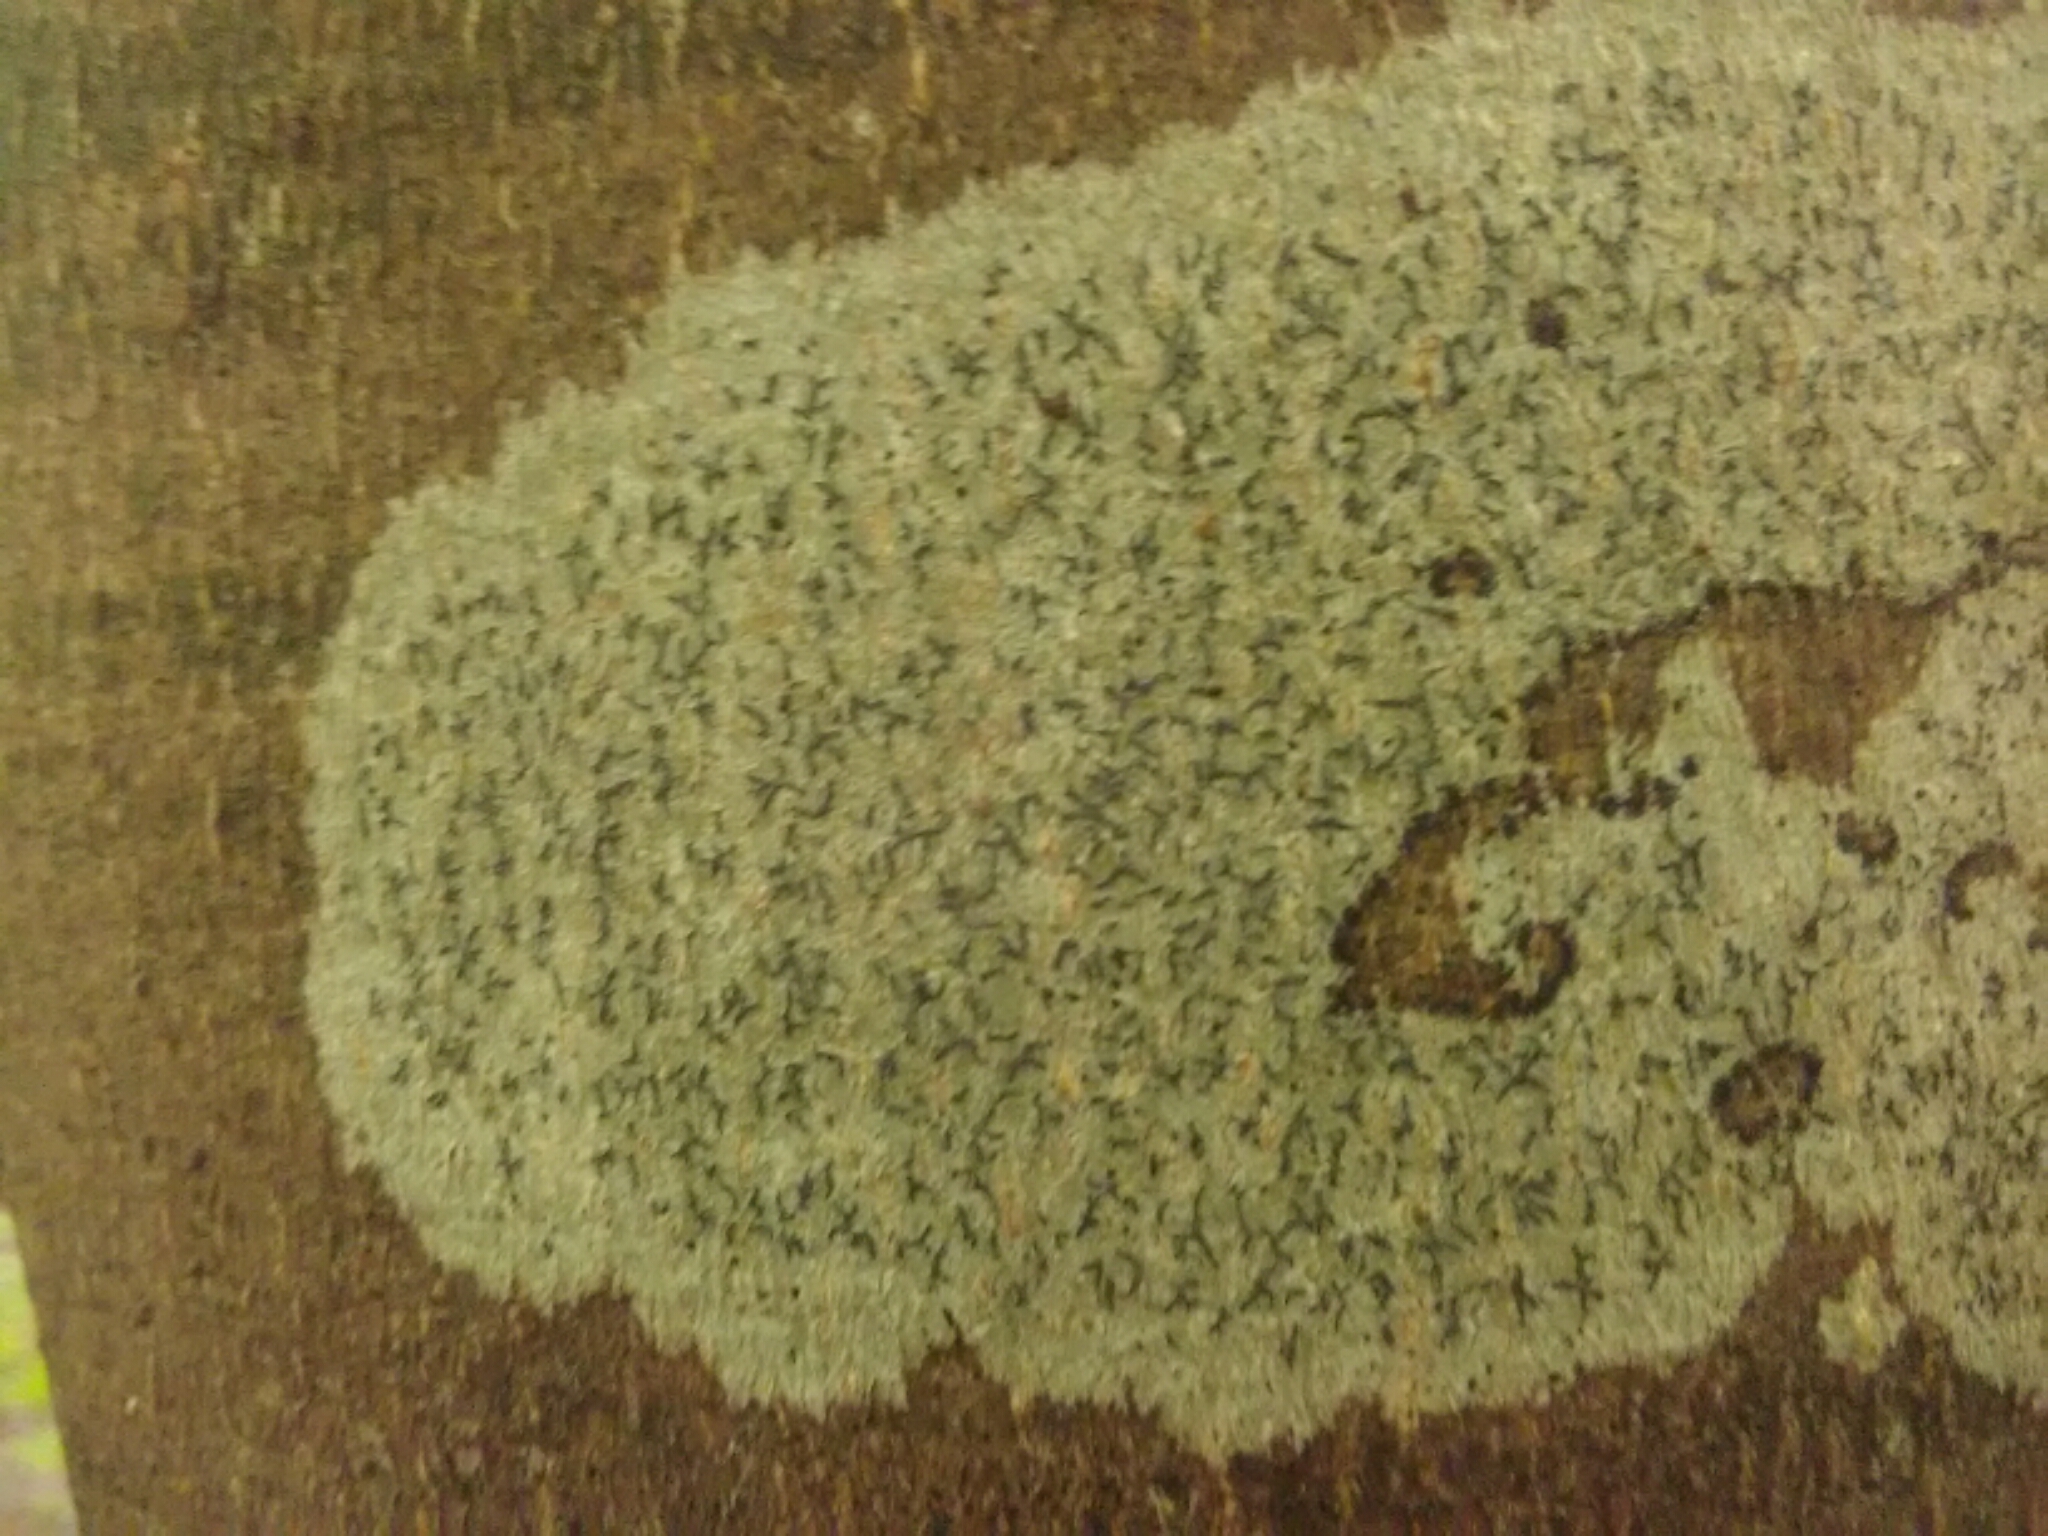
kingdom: Fungi
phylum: Ascomycota
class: Lecanoromycetes
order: Ostropales
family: Graphidaceae
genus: Graphis
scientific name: Graphis scripta
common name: Script lichen
